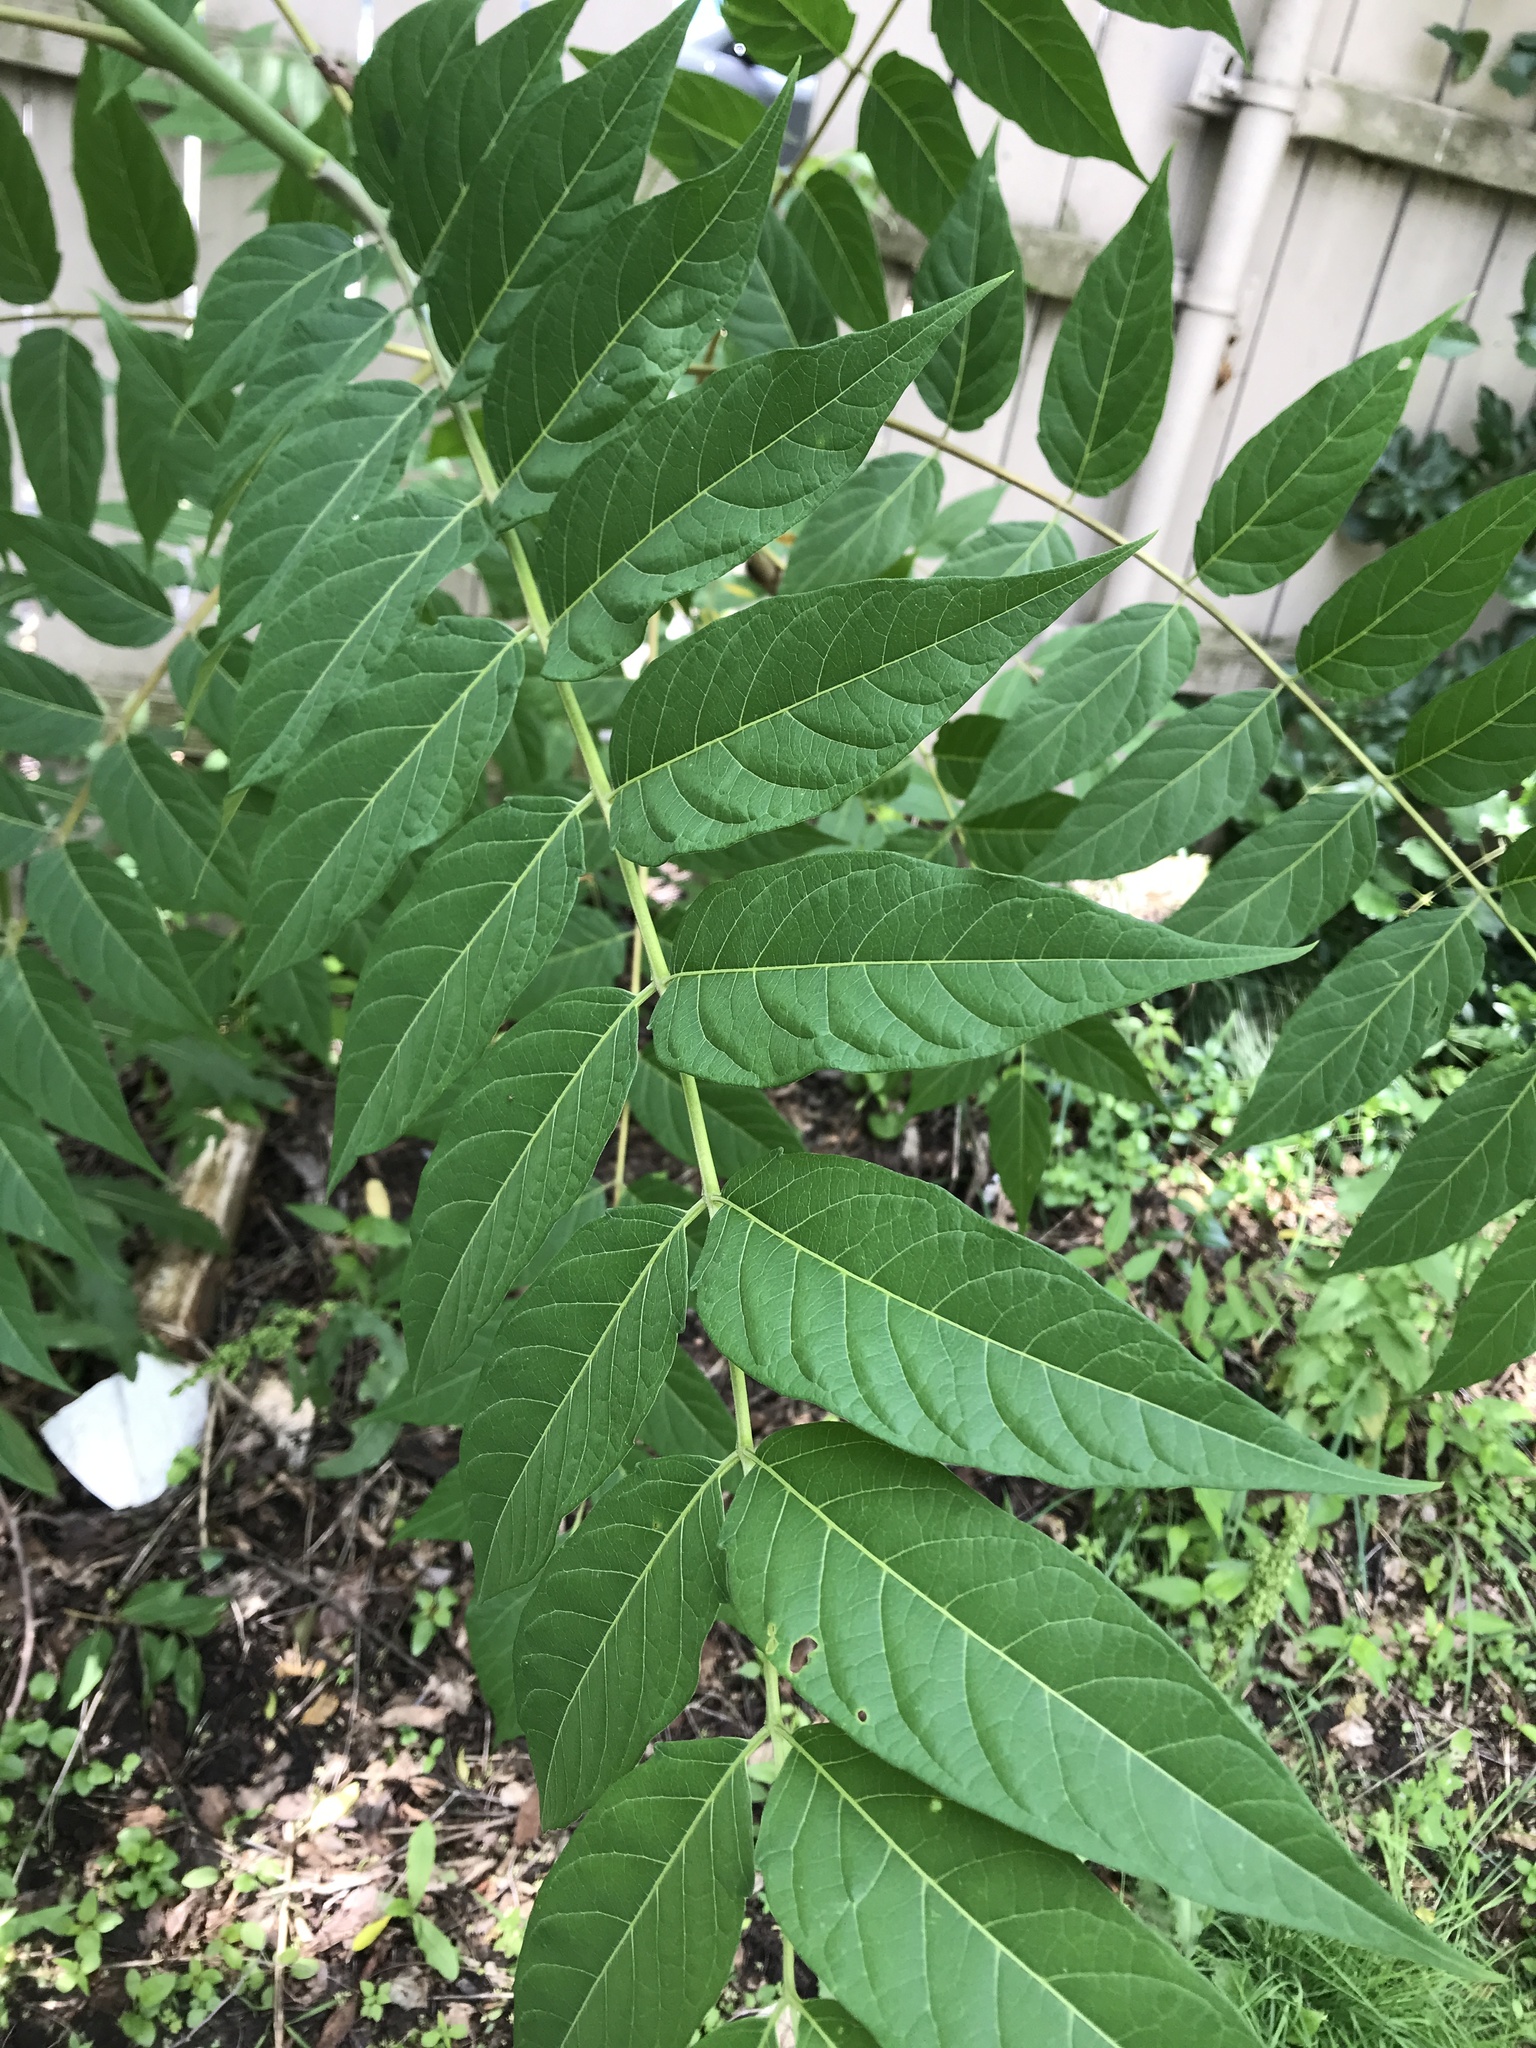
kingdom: Plantae
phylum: Tracheophyta
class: Magnoliopsida
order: Sapindales
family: Simaroubaceae
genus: Ailanthus
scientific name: Ailanthus altissima
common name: Tree-of-heaven
